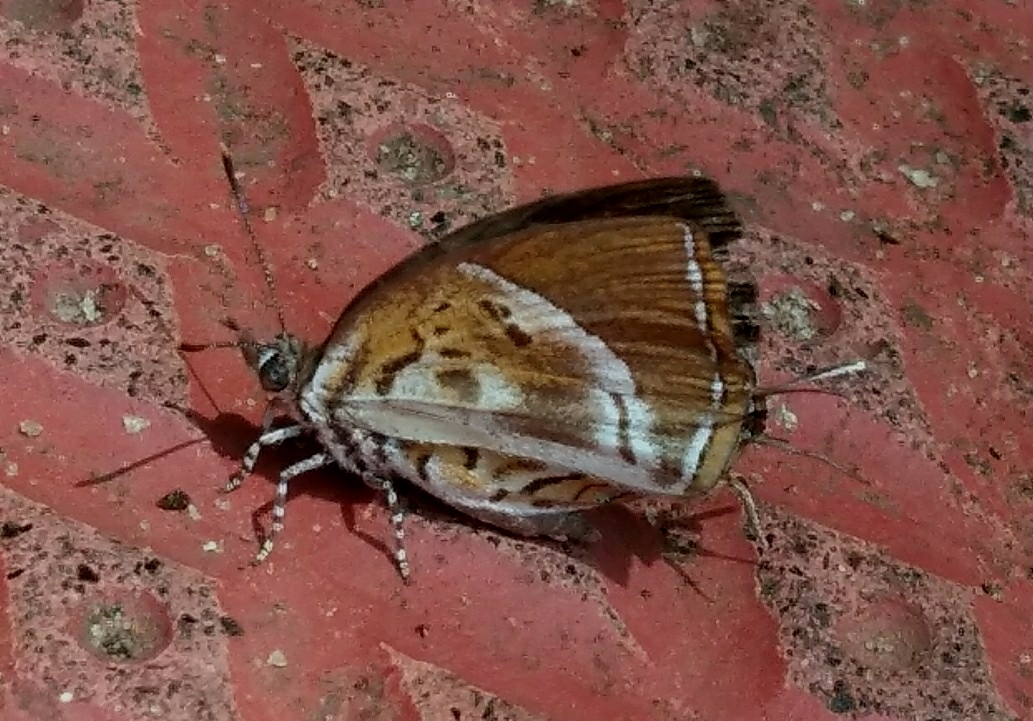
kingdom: Animalia
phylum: Arthropoda
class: Insecta
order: Lepidoptera
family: Lycaenidae
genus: Rathinda
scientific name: Rathinda amor
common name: Monkey puzzle
